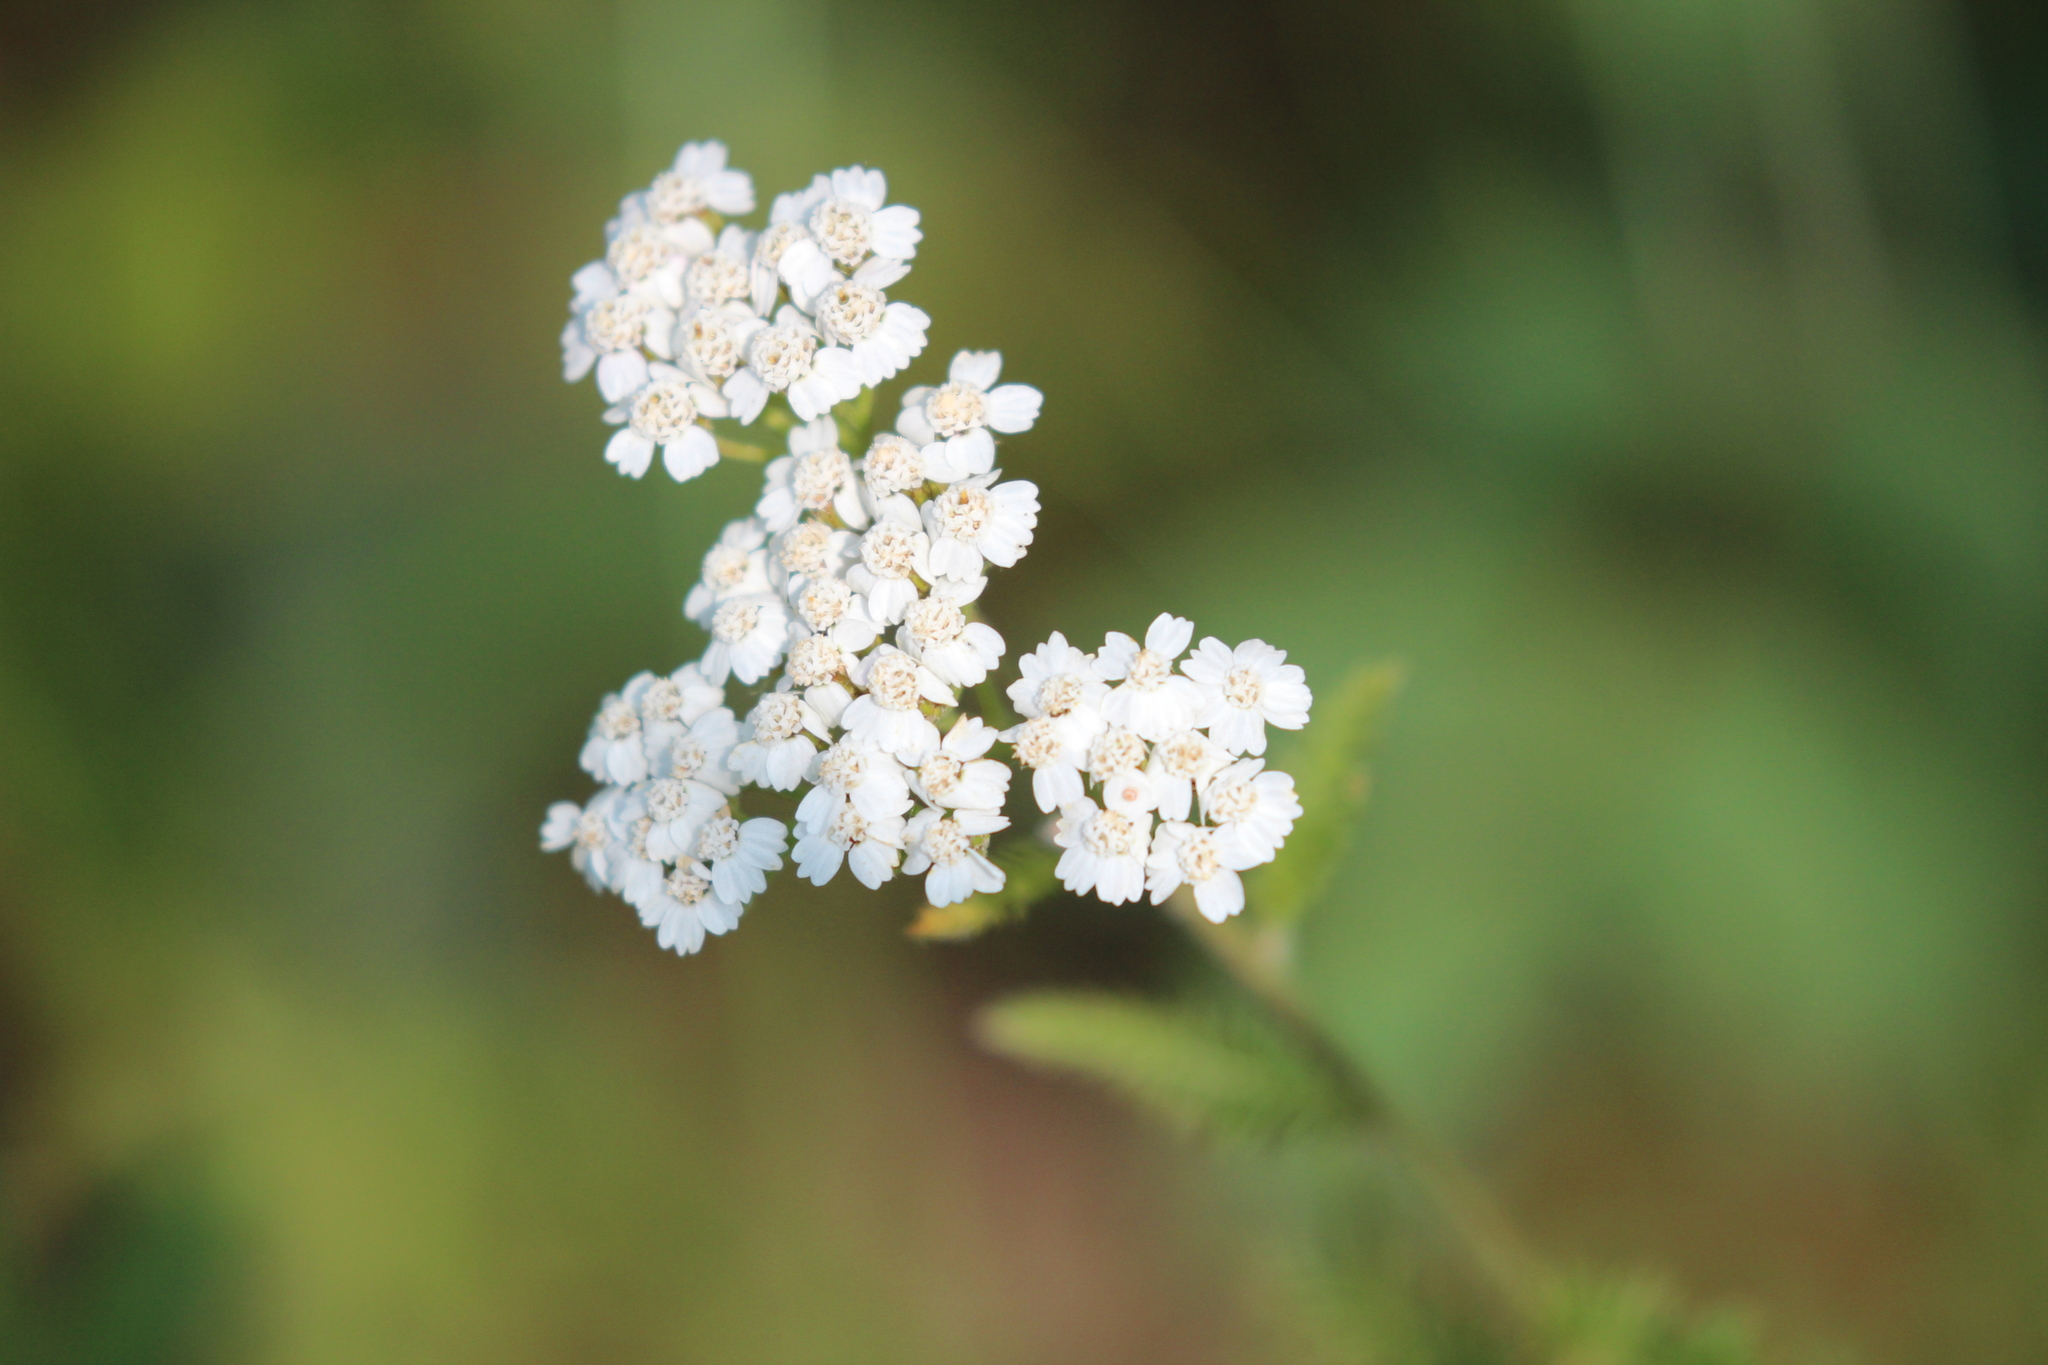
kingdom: Plantae
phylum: Tracheophyta
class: Magnoliopsida
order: Asterales
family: Asteraceae
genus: Achillea
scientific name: Achillea millefolium
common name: Yarrow
